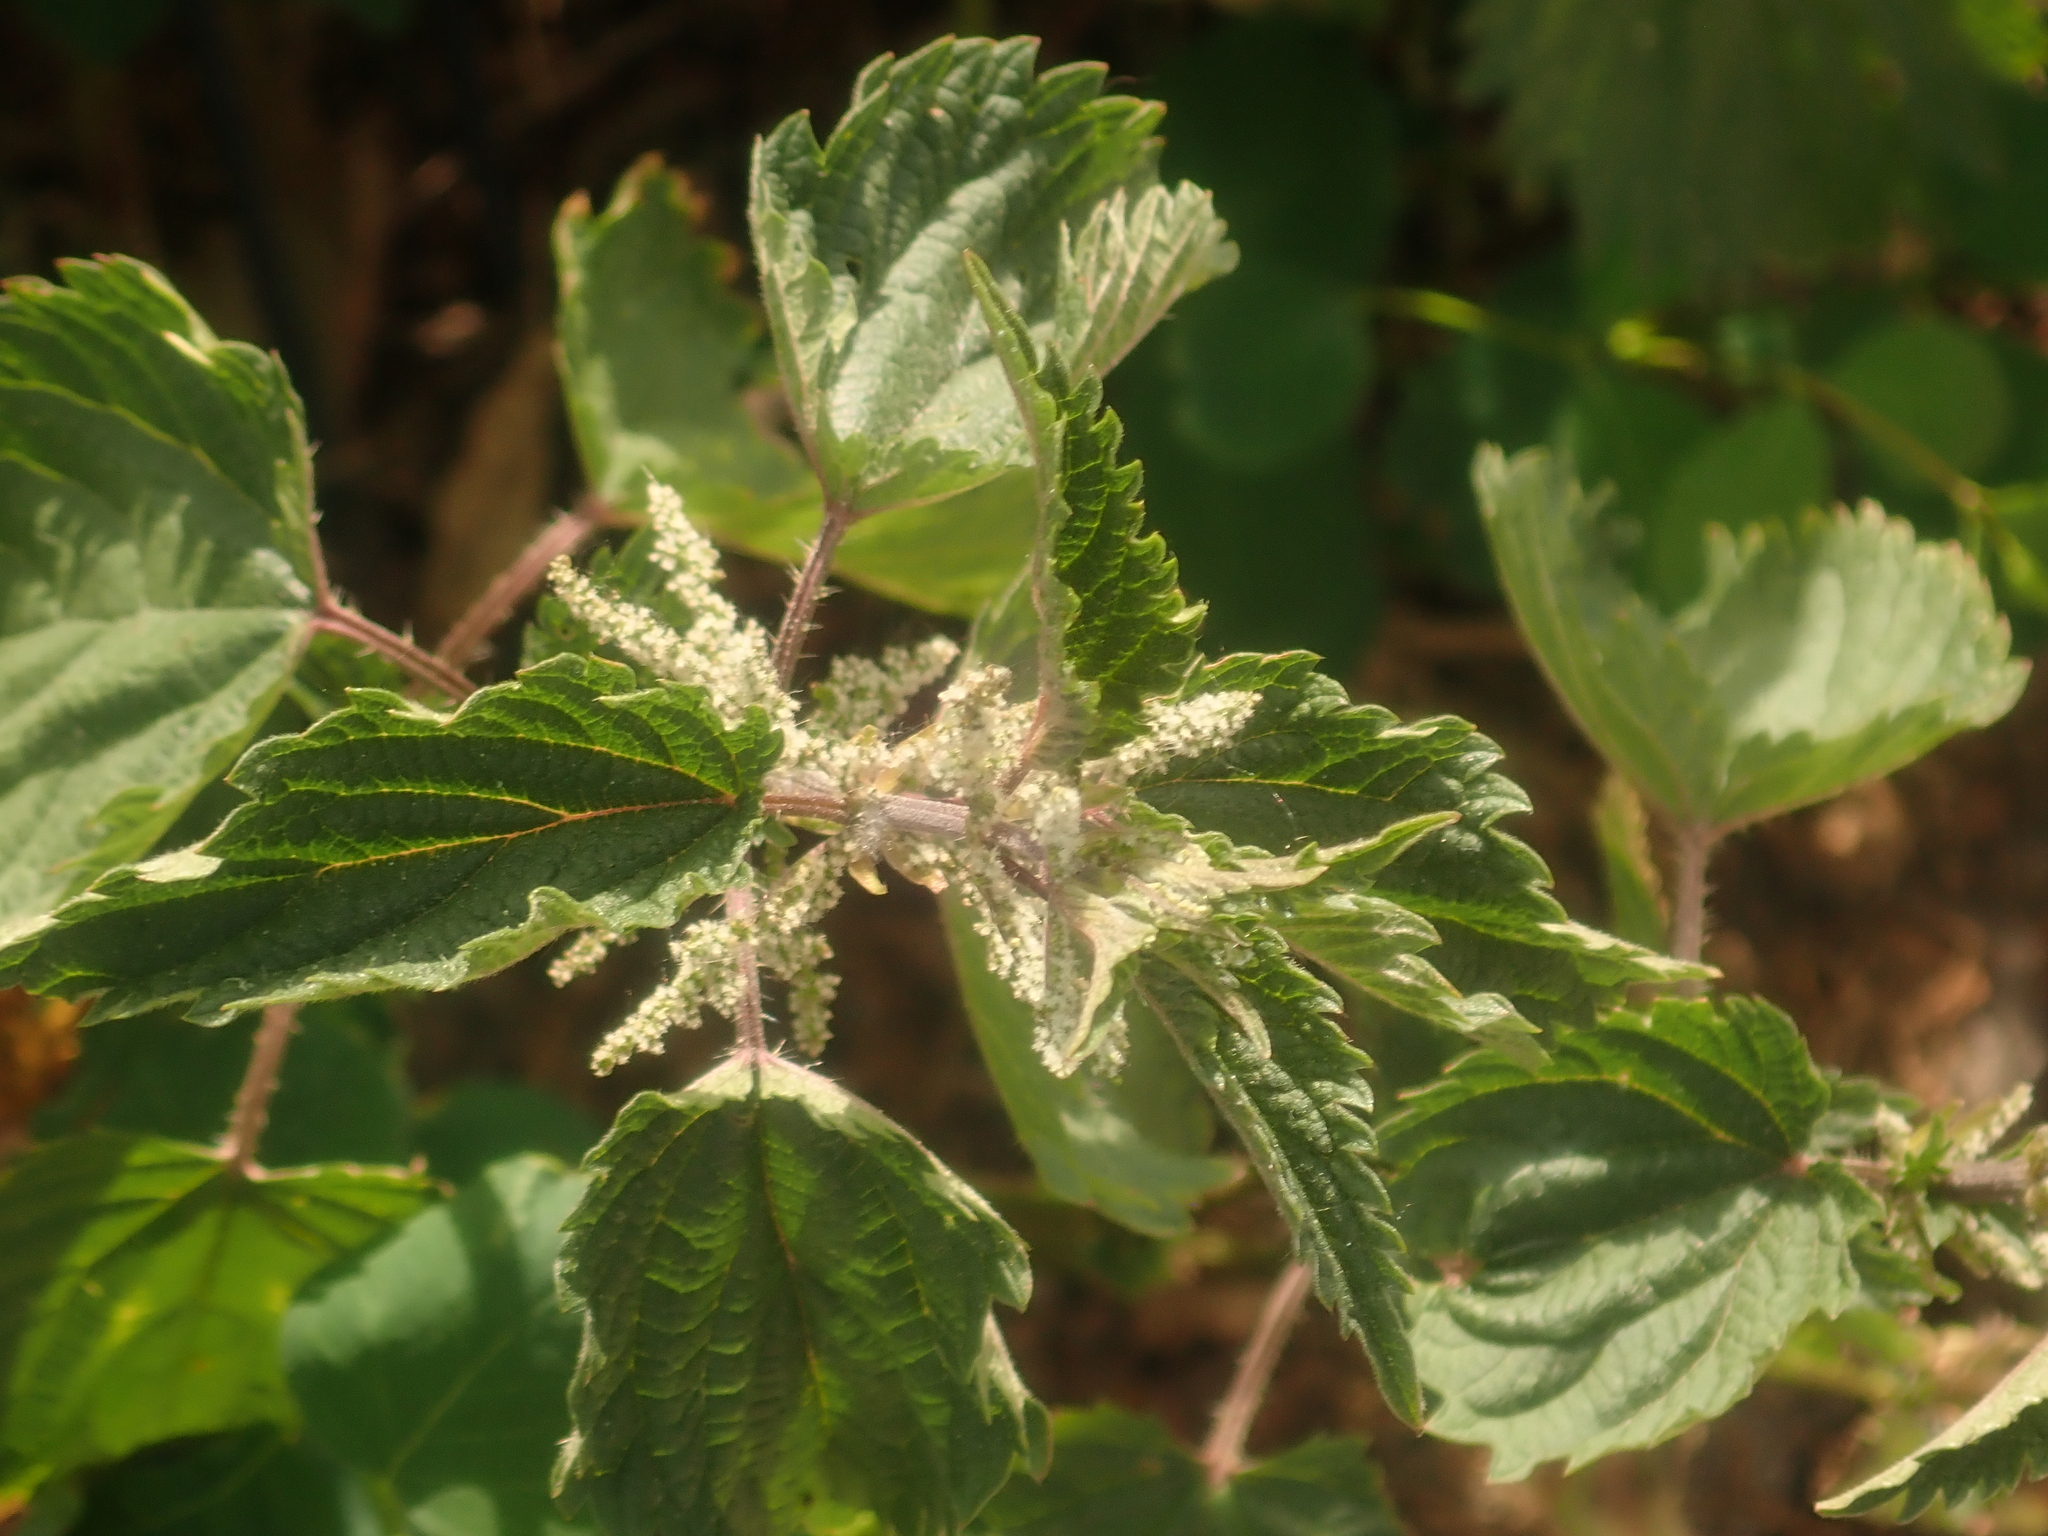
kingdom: Plantae
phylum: Tracheophyta
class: Magnoliopsida
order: Rosales
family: Urticaceae
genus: Urtica
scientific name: Urtica dioica
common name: Common nettle
